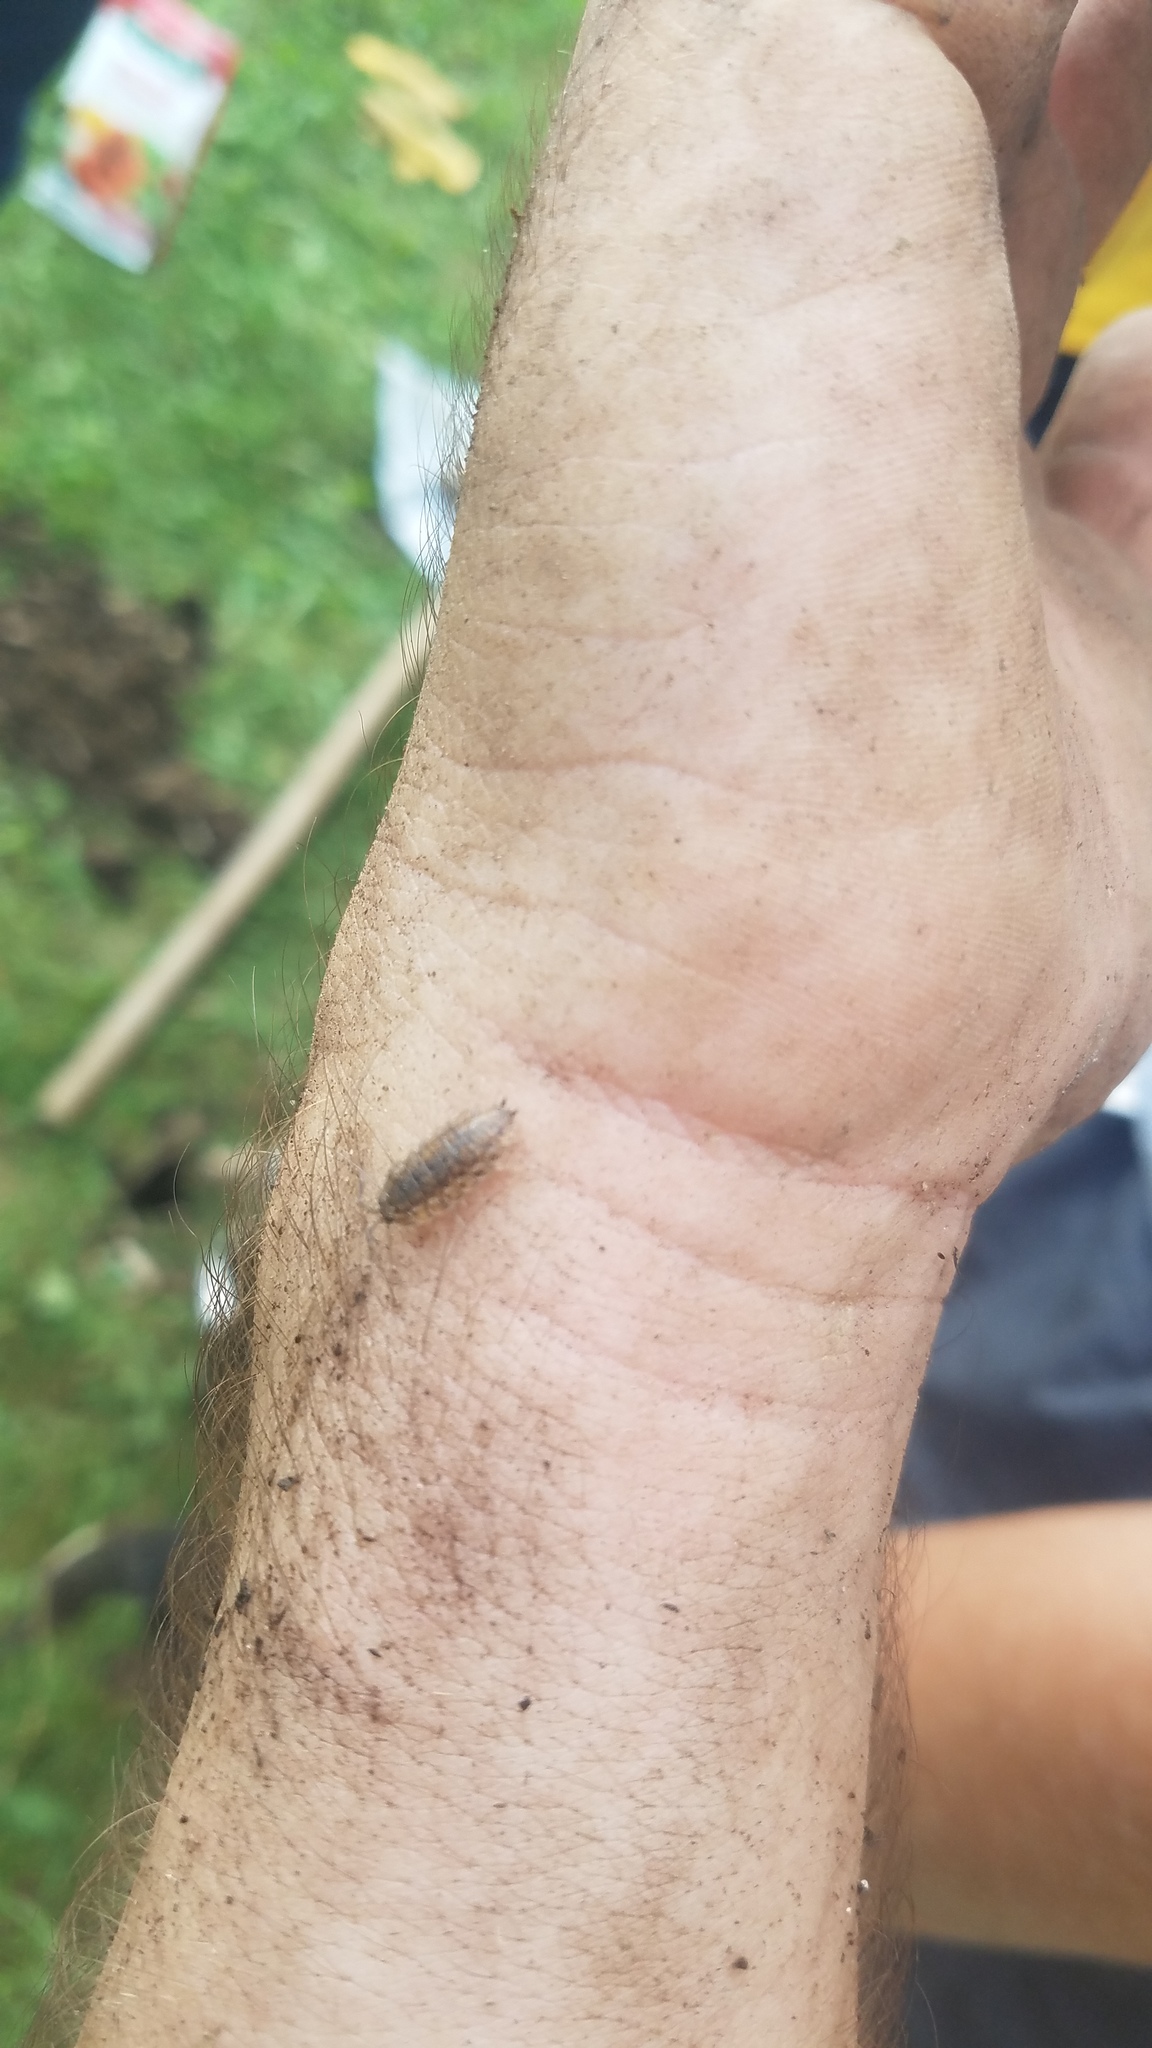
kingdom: Animalia
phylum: Arthropoda
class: Malacostraca
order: Isopoda
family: Trachelipodidae
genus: Trachelipus
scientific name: Trachelipus rathkii
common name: Isopod
